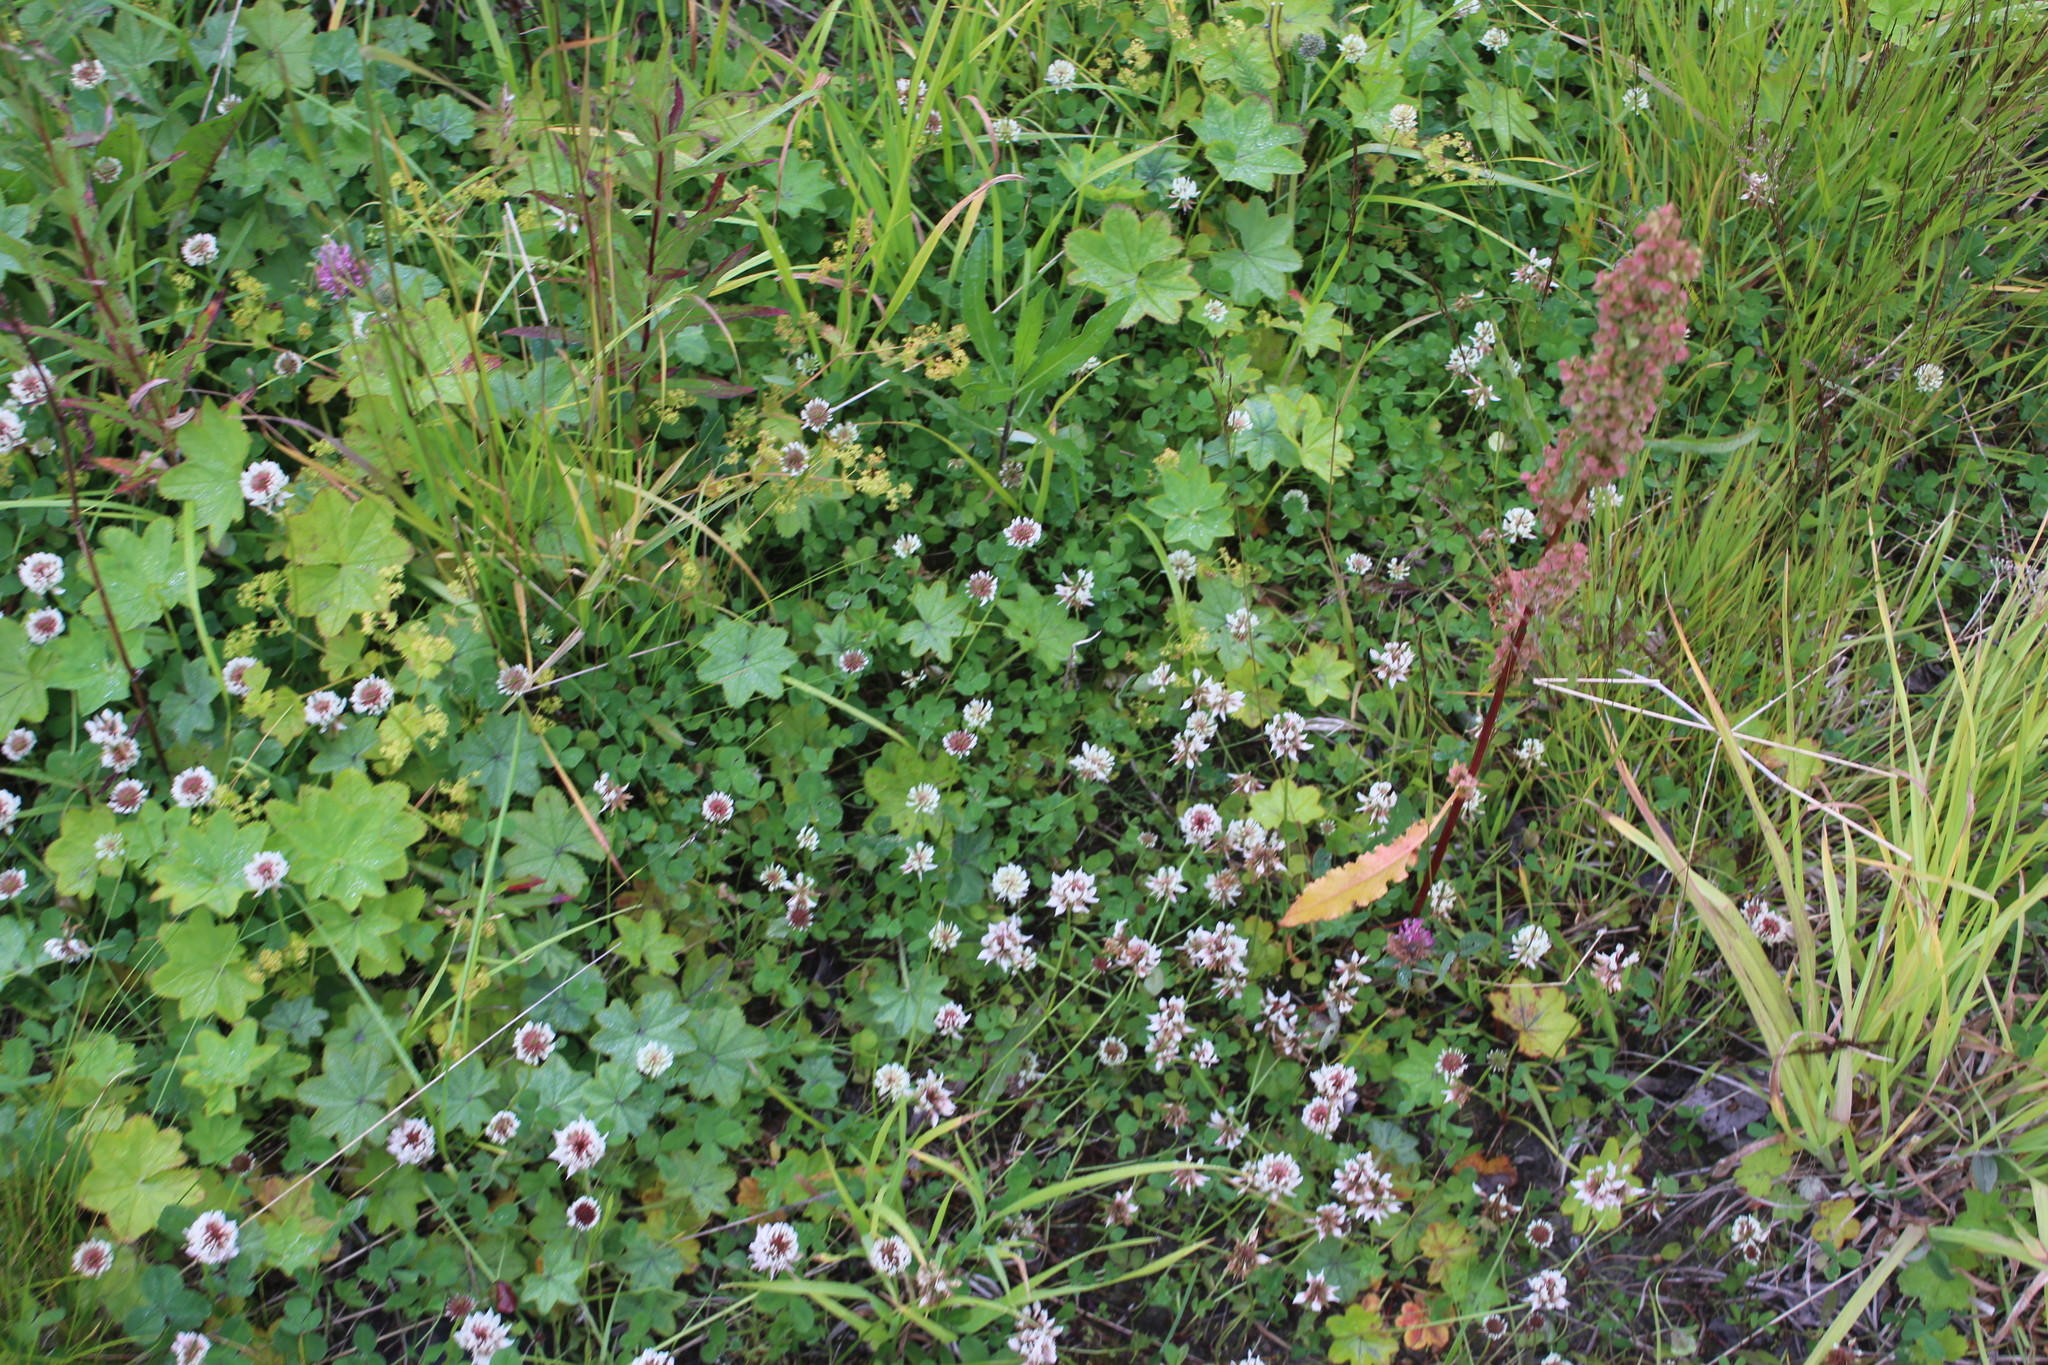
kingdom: Plantae
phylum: Tracheophyta
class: Magnoliopsida
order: Fabales
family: Fabaceae
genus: Trifolium
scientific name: Trifolium repens
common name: White clover
